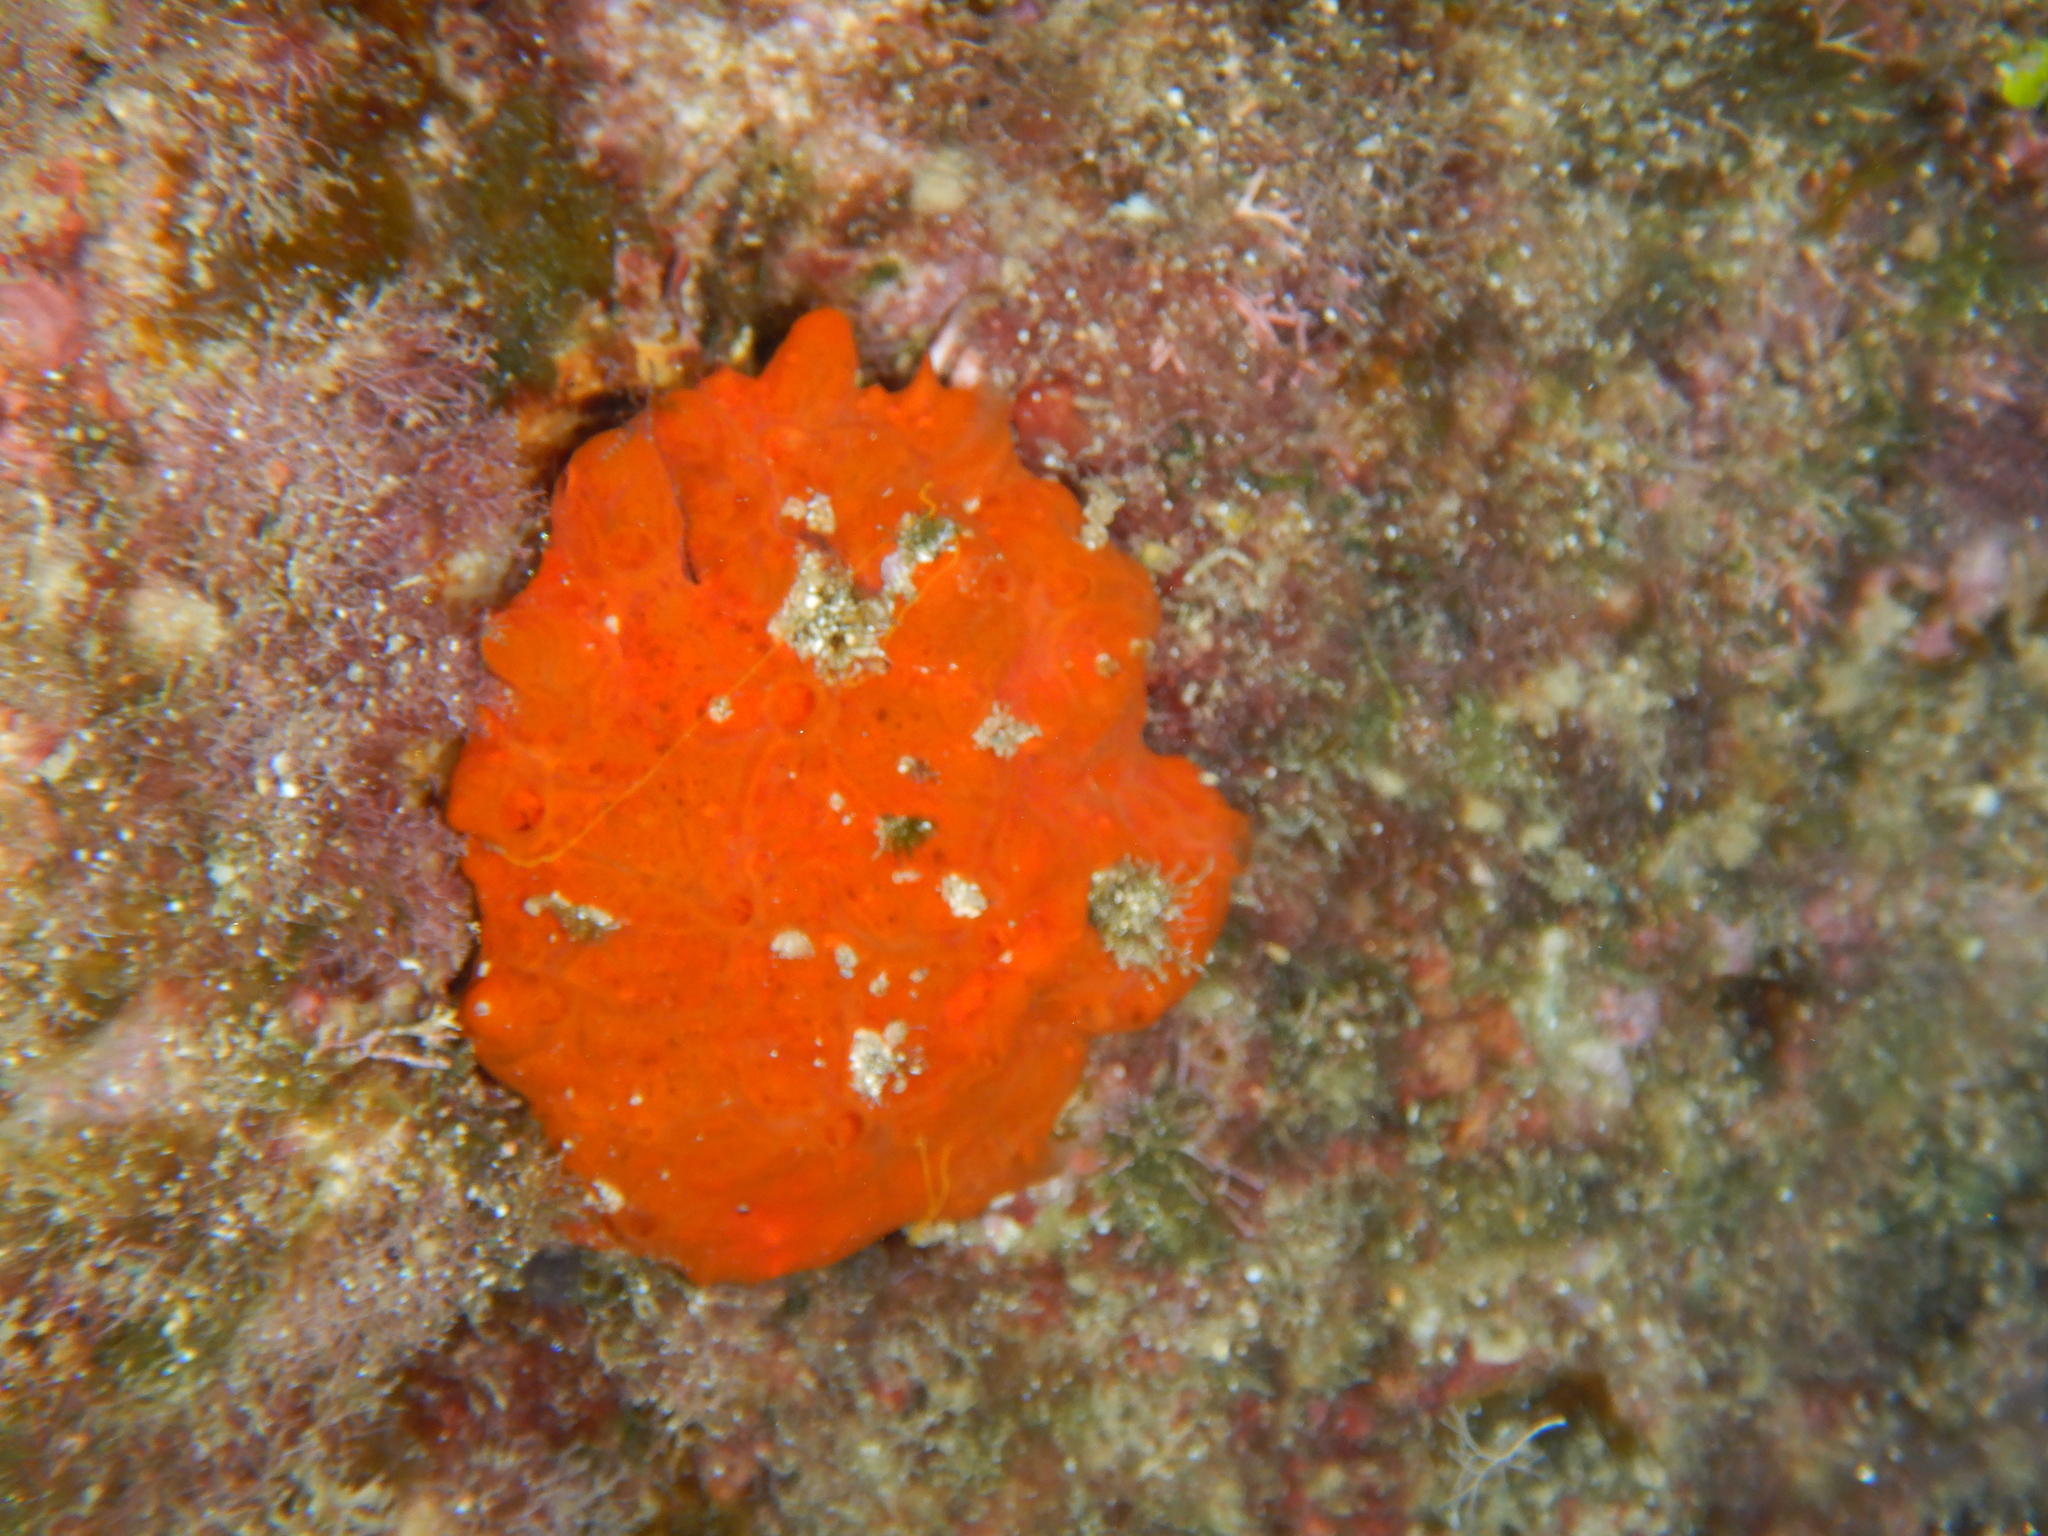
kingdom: Animalia
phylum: Porifera
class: Demospongiae
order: Poecilosclerida
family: Crambeidae
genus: Crambe
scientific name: Crambe crambe
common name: Orange-red encrusting sponge
